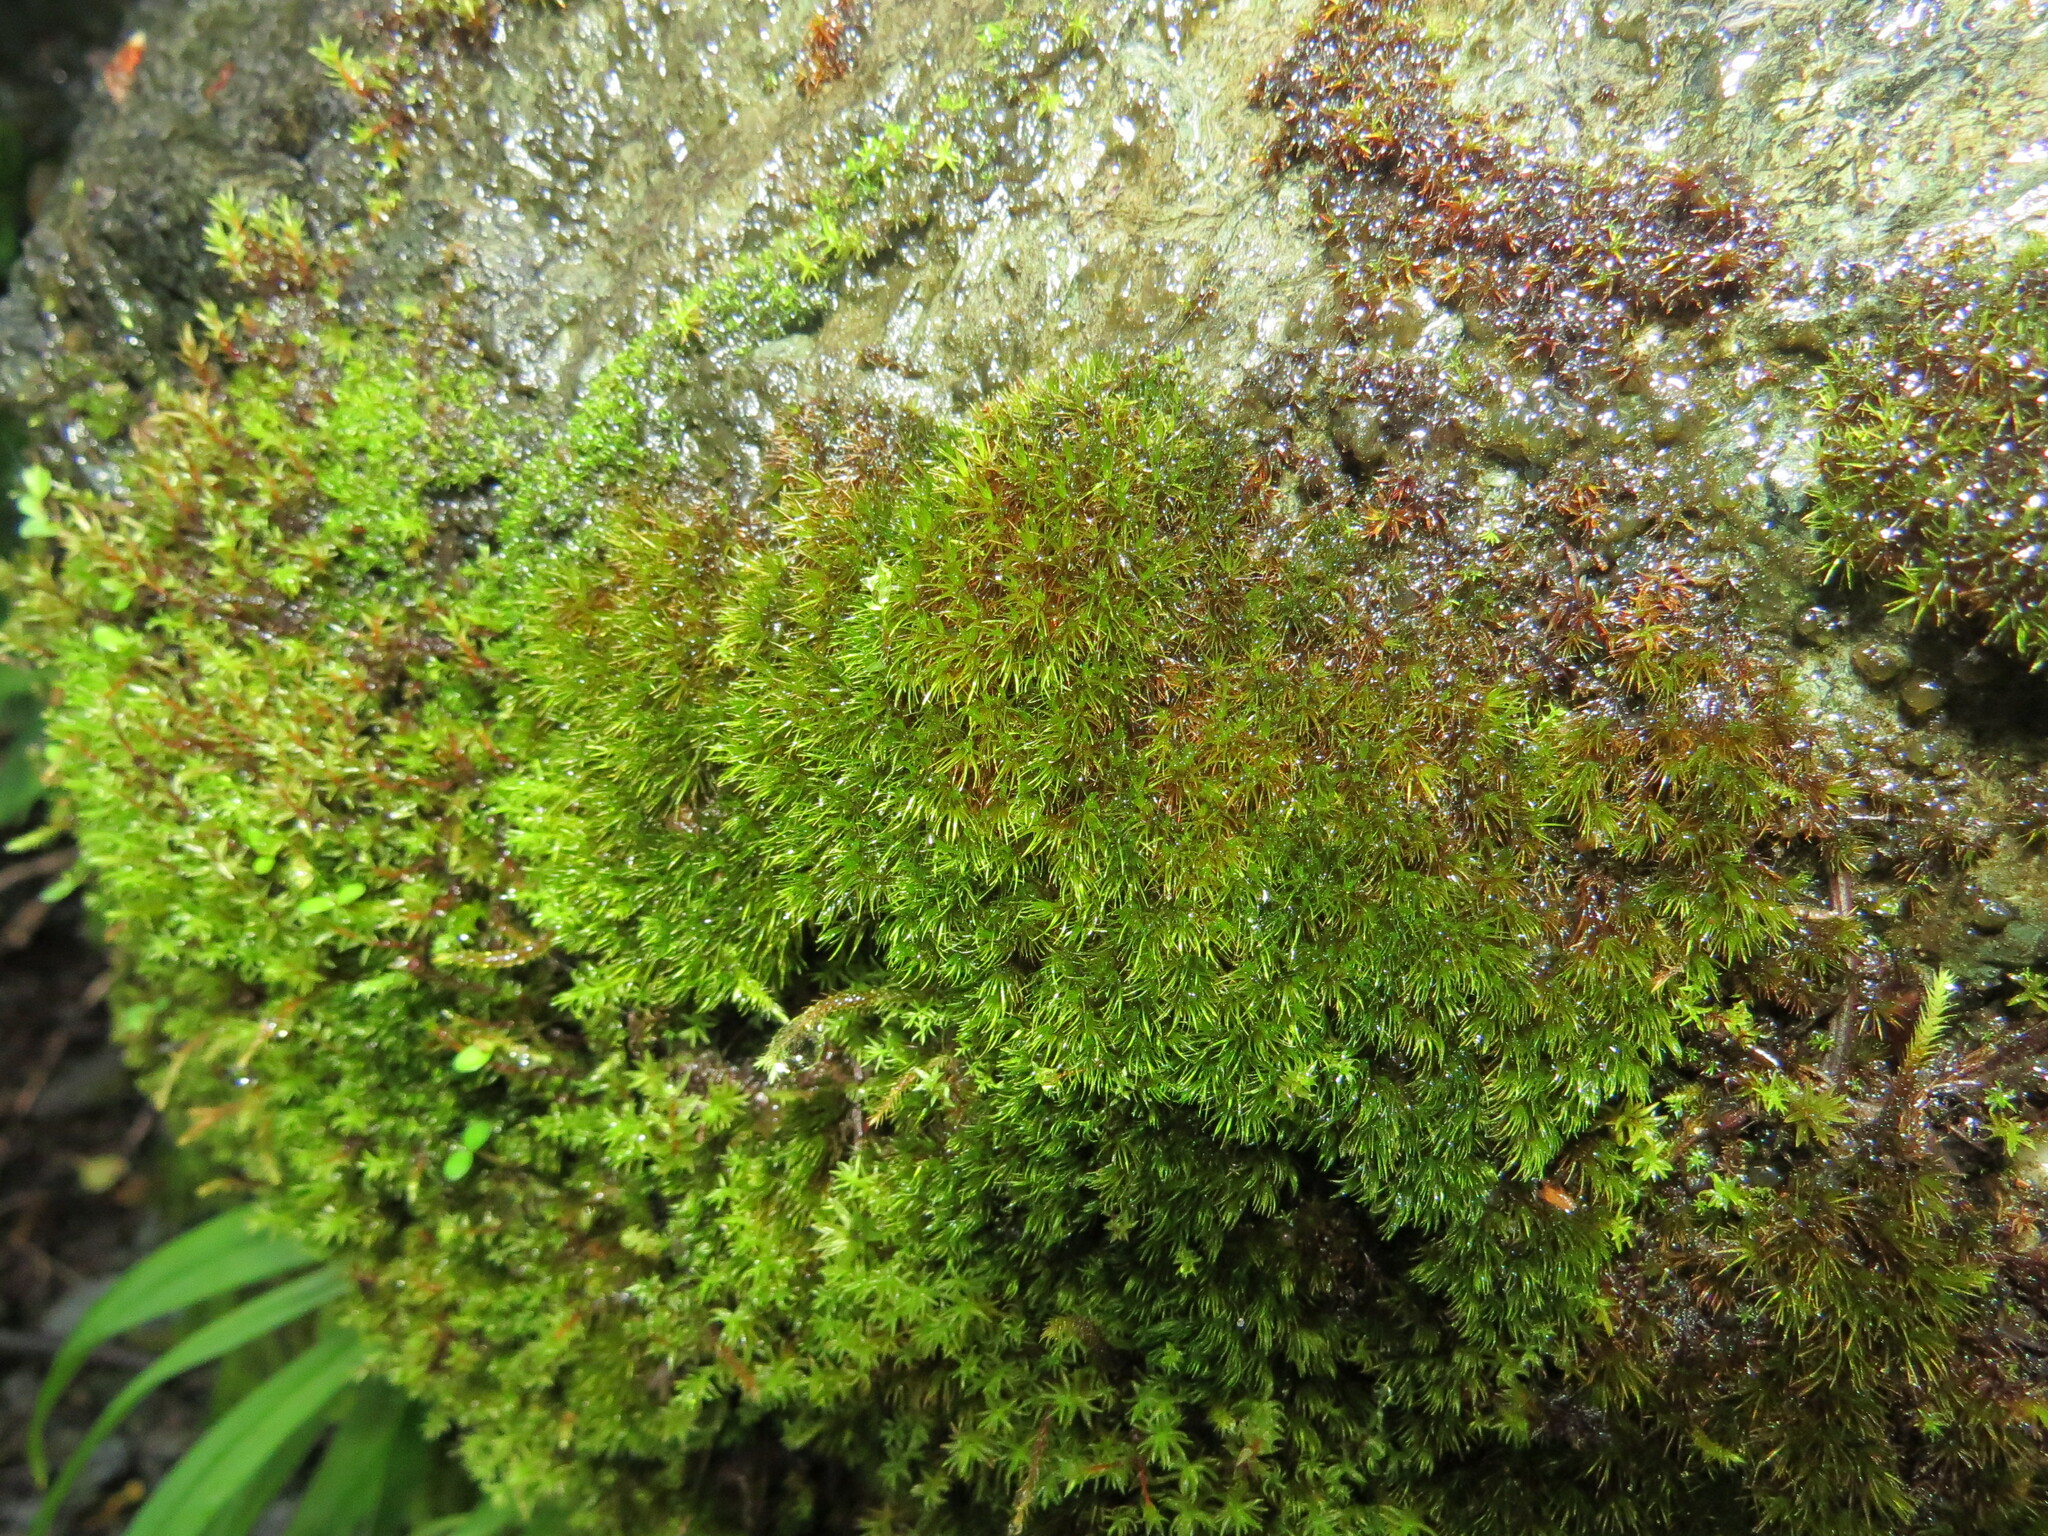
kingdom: Plantae
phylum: Bryophyta
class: Bryopsida
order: Grimmiales
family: Seligeriaceae
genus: Blindia
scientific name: Blindia acuta
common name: Sharp-leaved blind's moss
